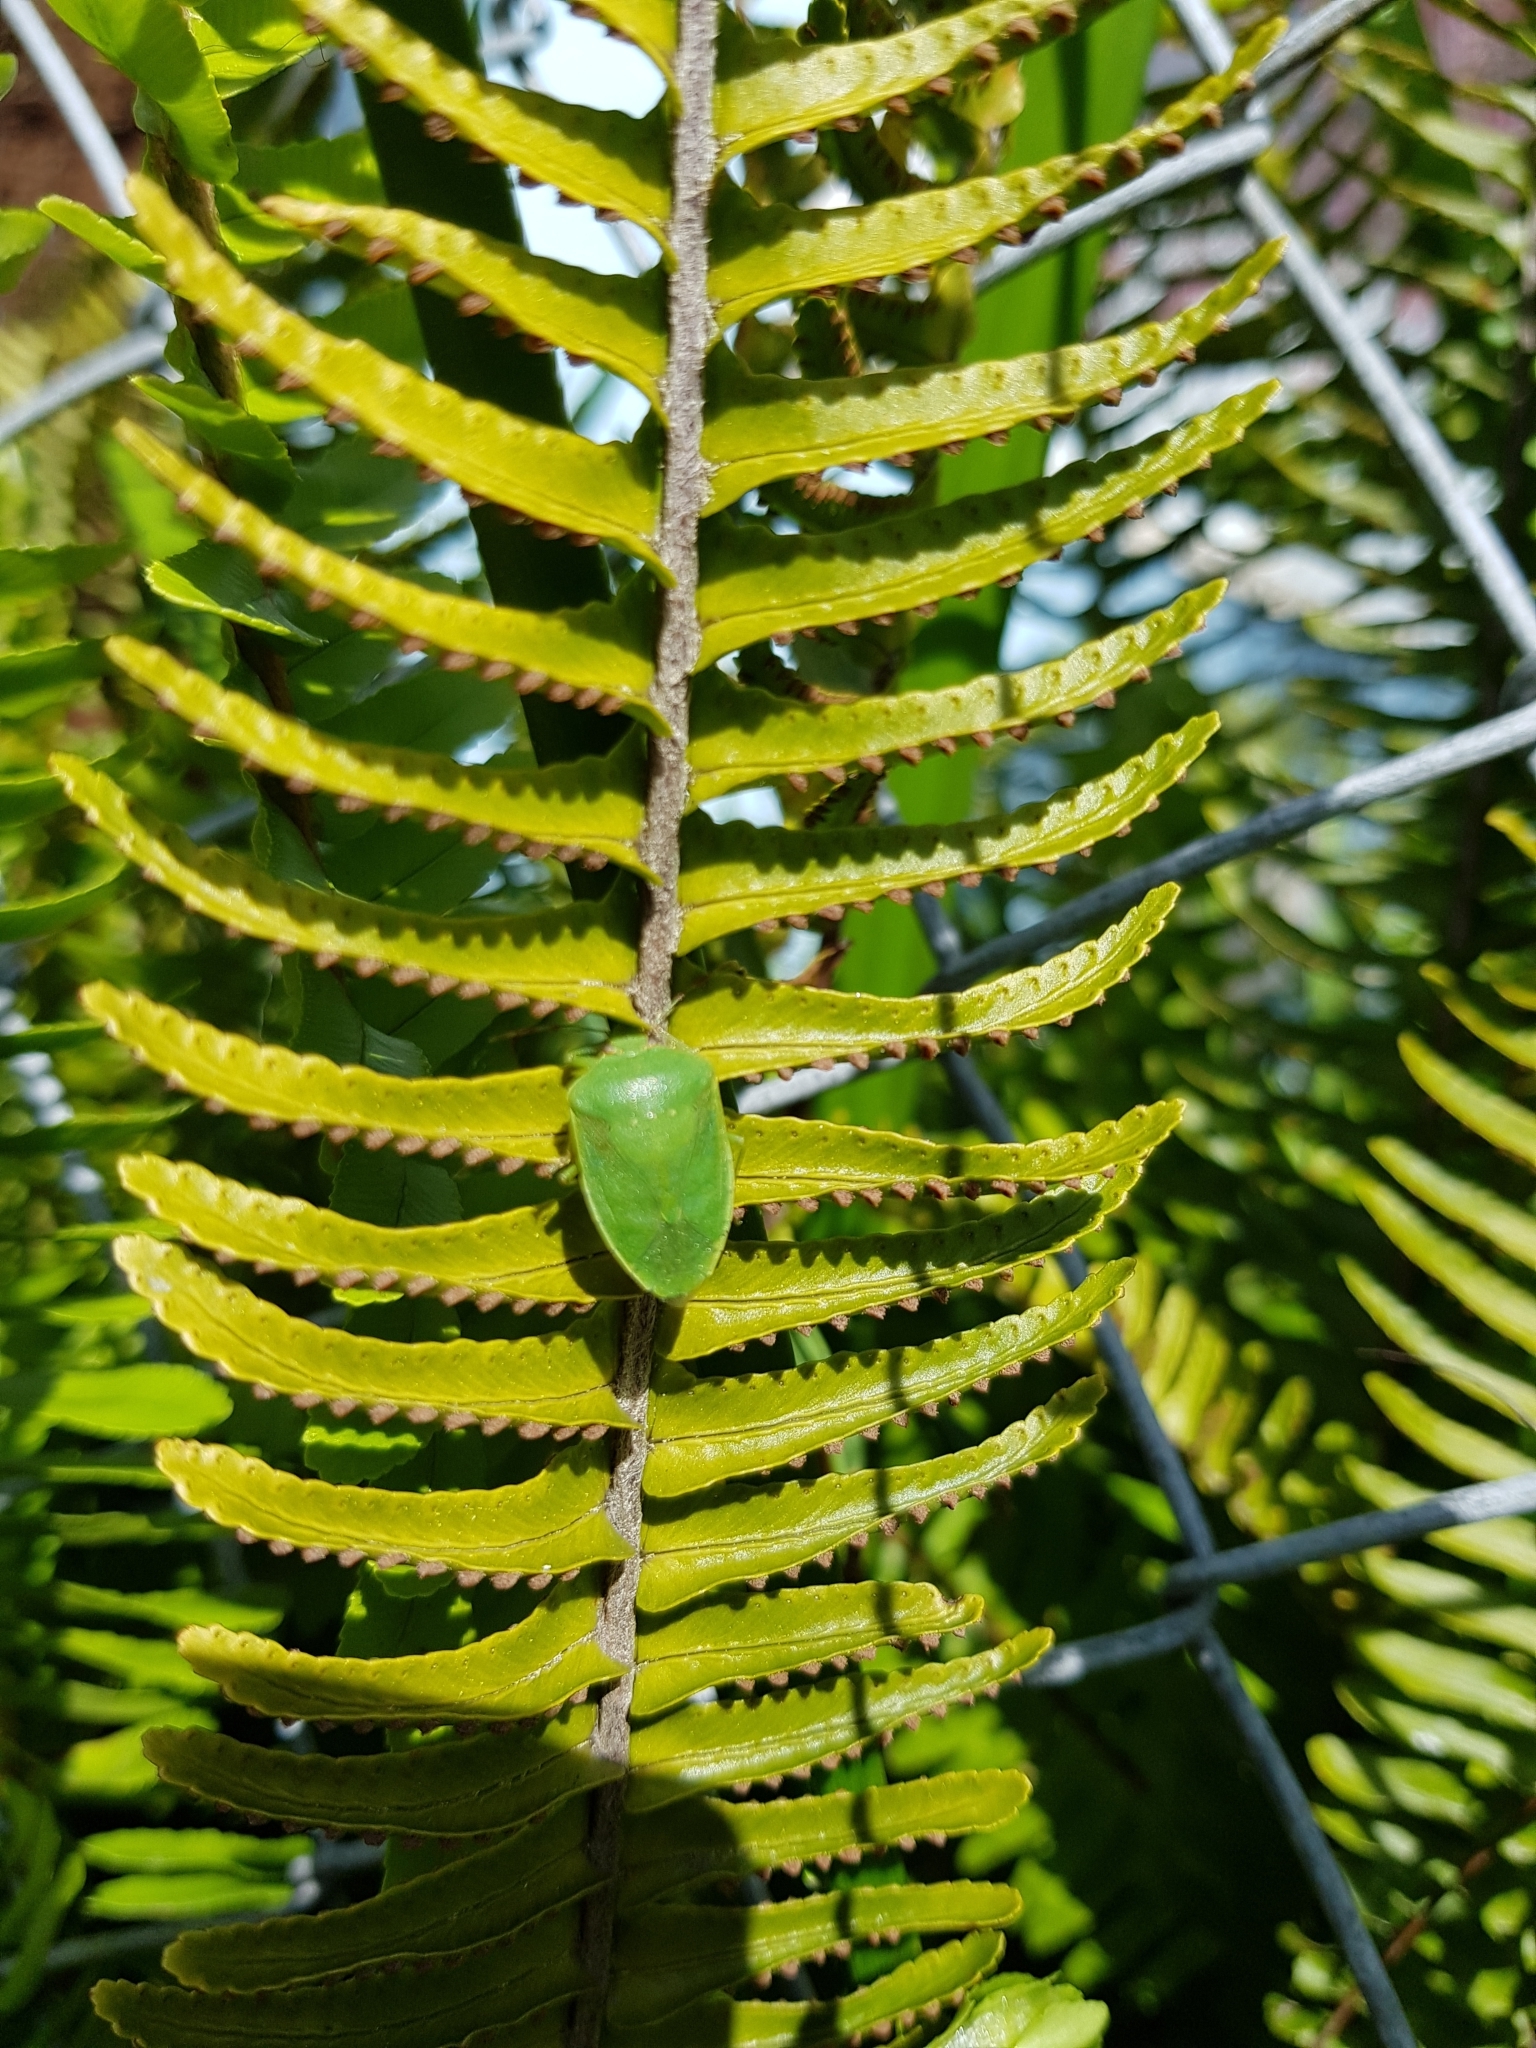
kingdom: Animalia
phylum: Arthropoda
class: Insecta
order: Hemiptera
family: Pentatomidae
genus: Nezara
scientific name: Nezara viridula
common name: Southern green stink bug
